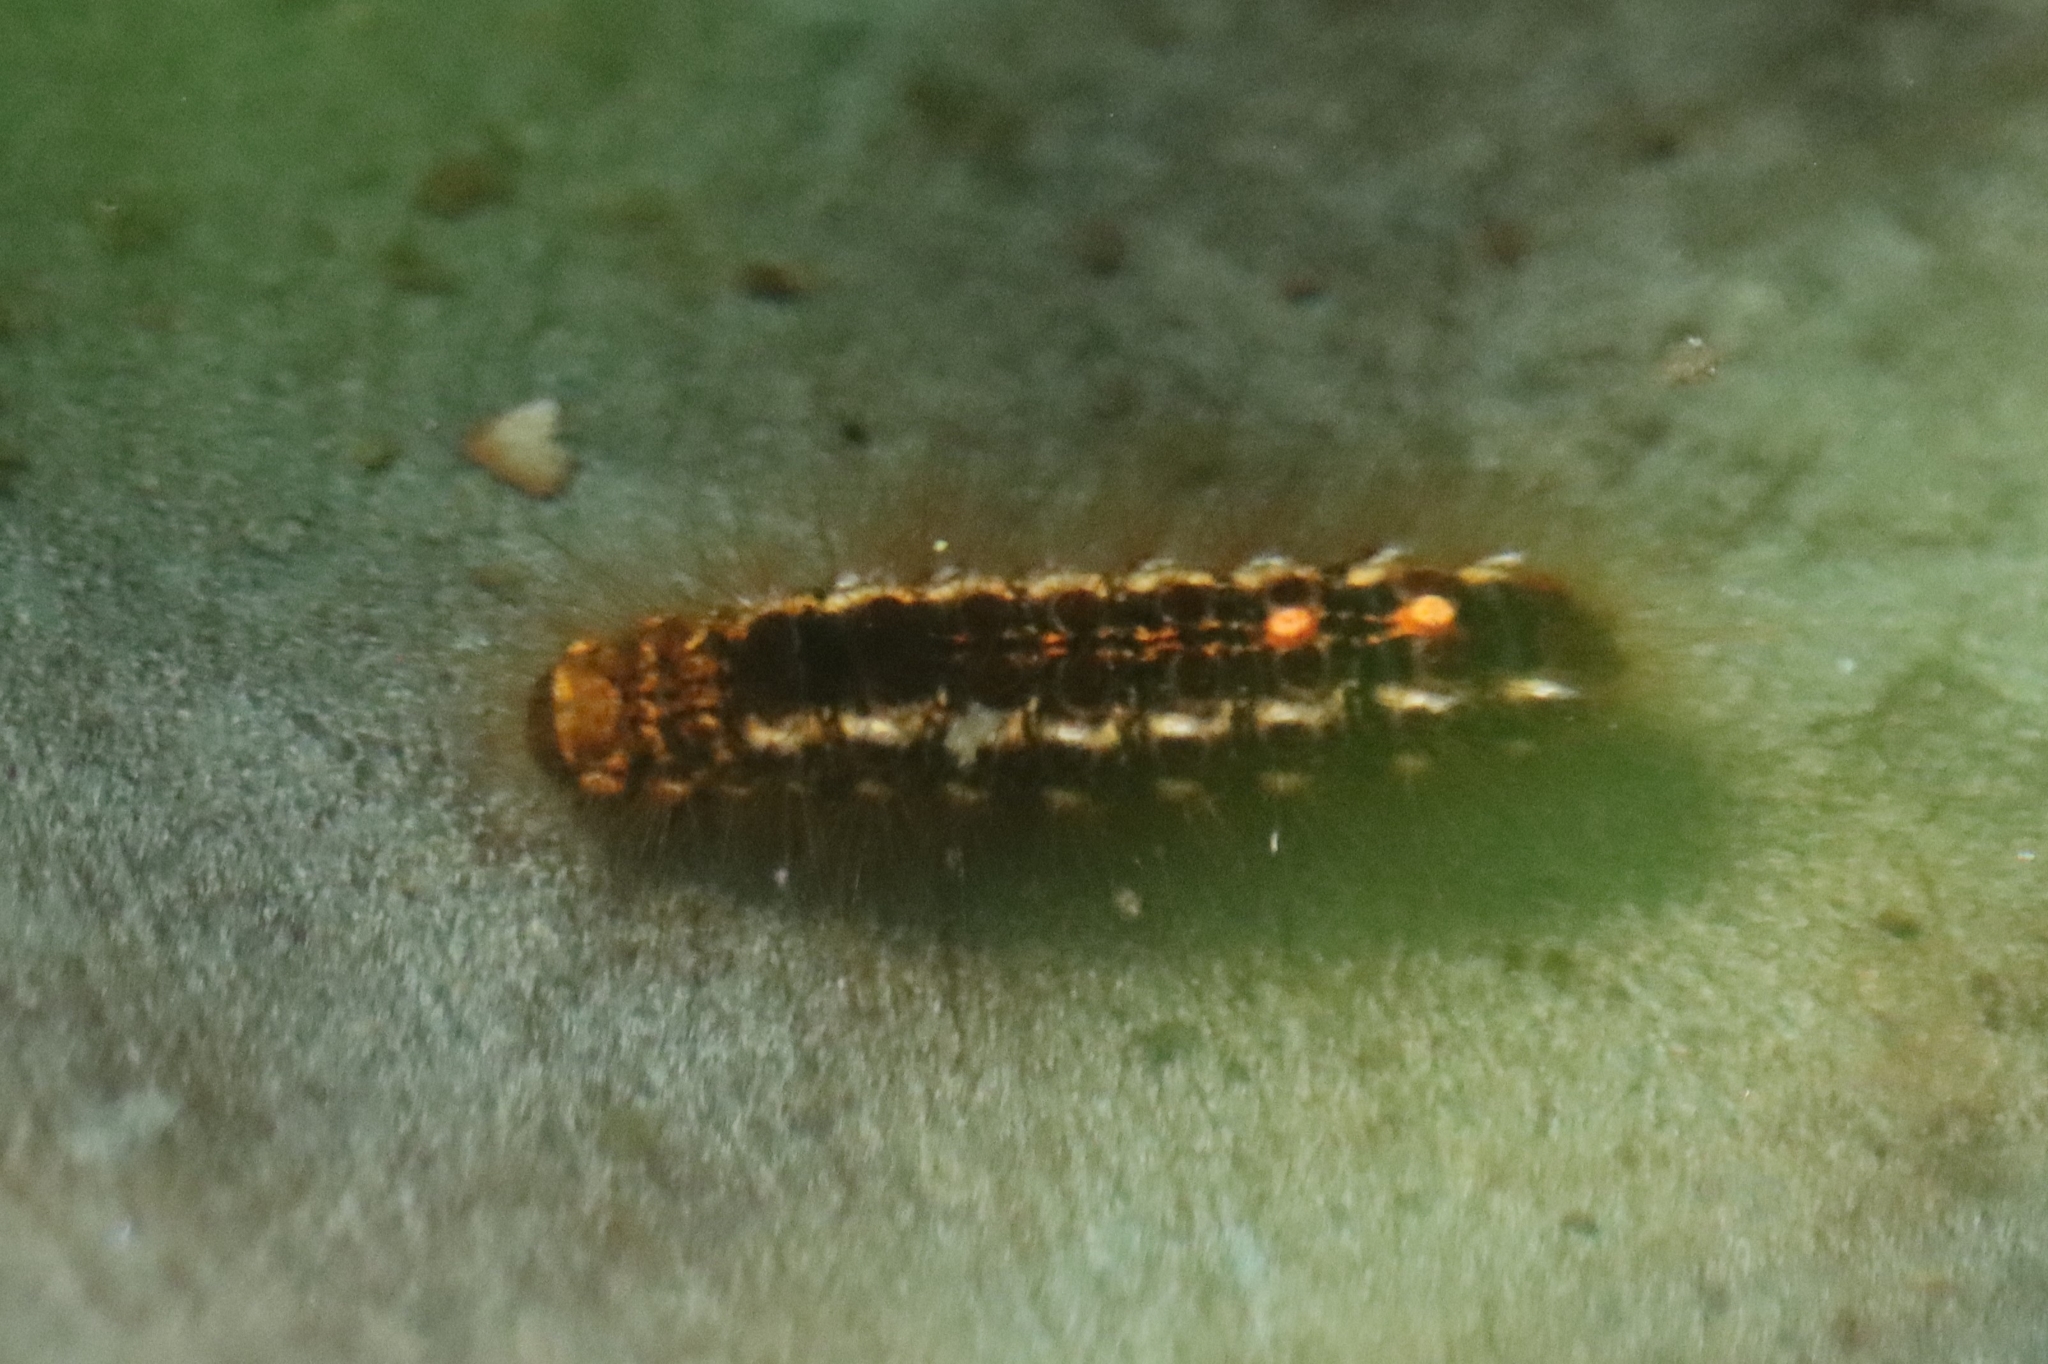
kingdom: Animalia
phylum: Arthropoda
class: Insecta
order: Lepidoptera
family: Erebidae
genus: Euproctis
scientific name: Euproctis chrysorrhoea
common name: Brown-tail
